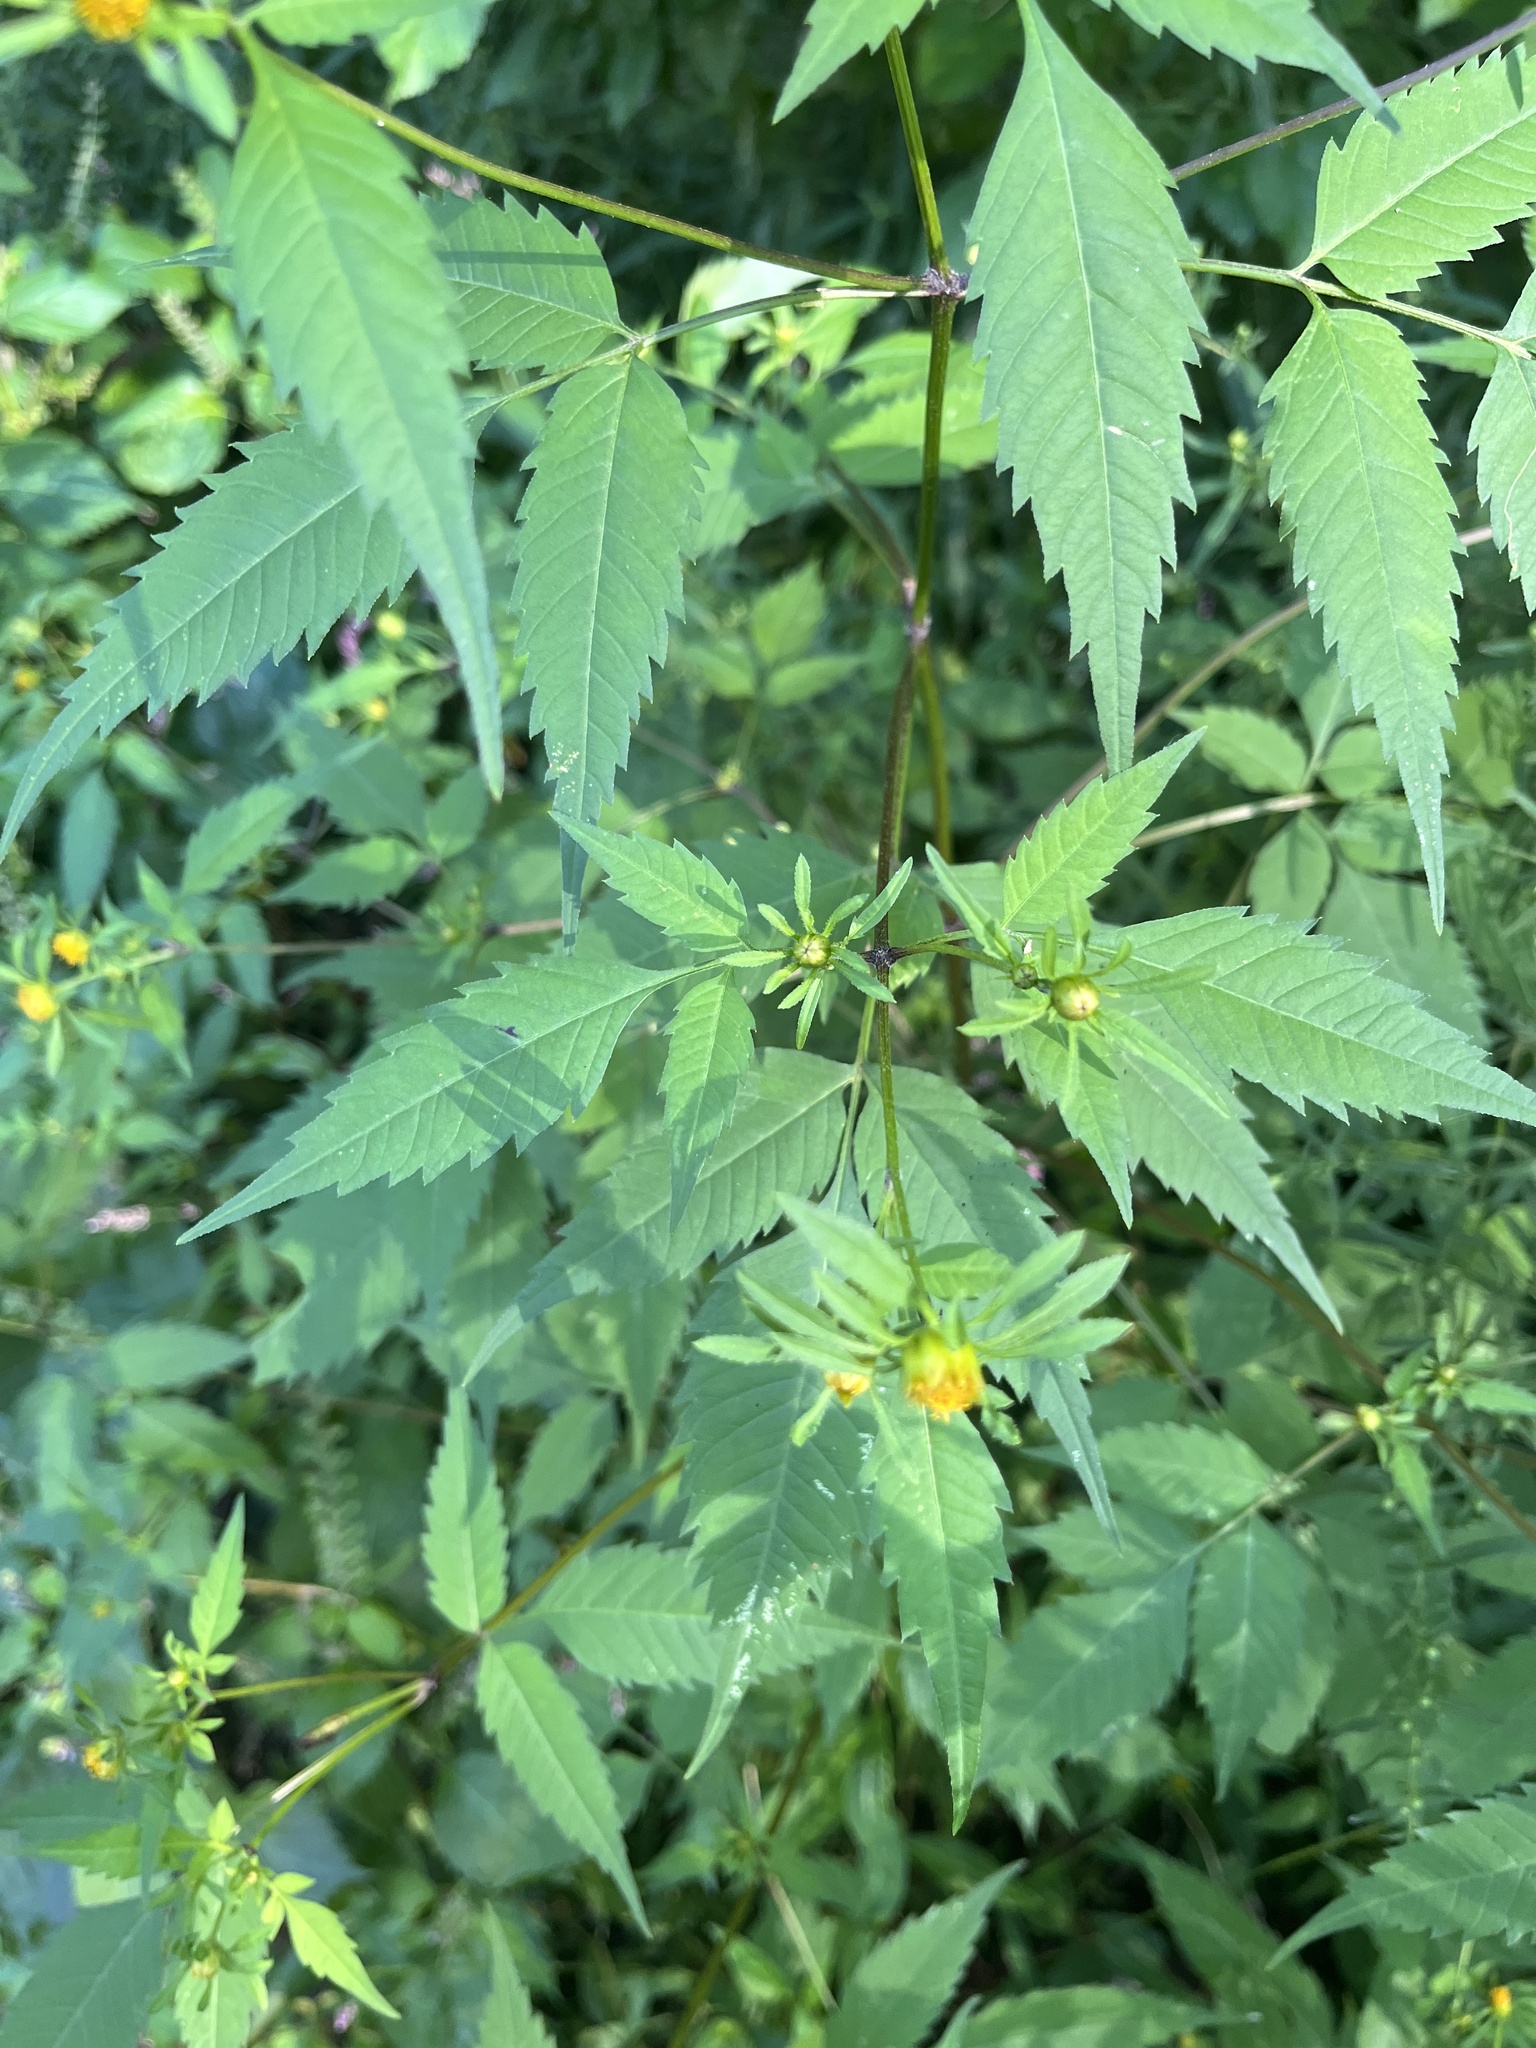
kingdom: Plantae
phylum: Tracheophyta
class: Magnoliopsida
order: Asterales
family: Asteraceae
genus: Bidens
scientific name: Bidens frondosa
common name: Beggarticks
